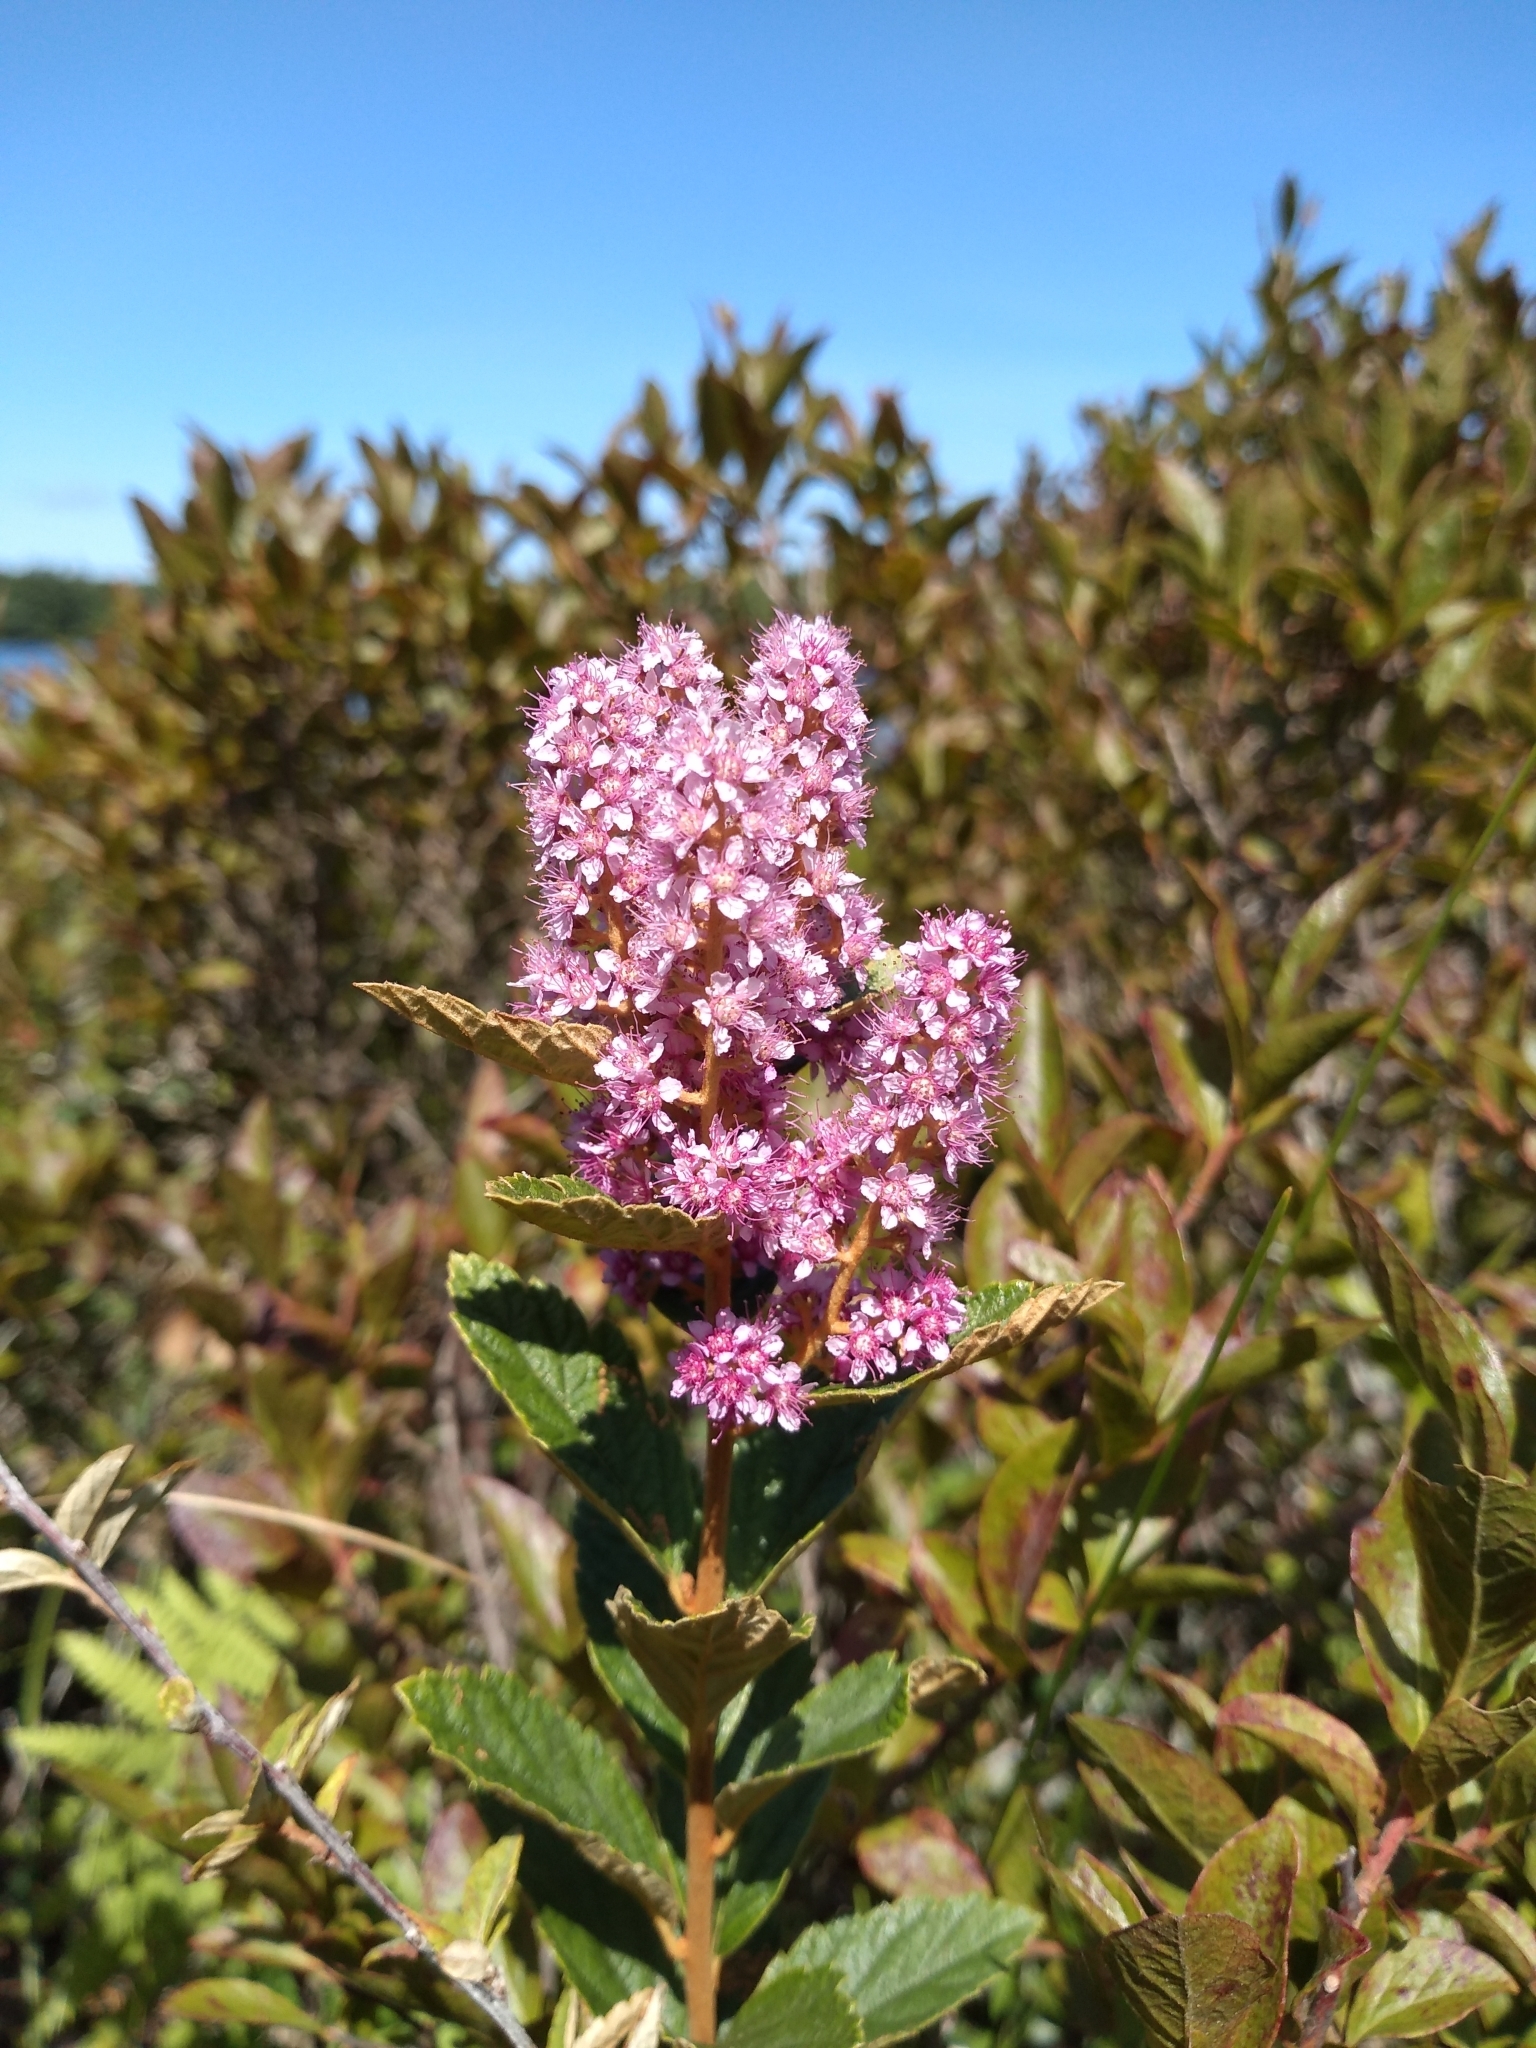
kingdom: Plantae
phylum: Tracheophyta
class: Magnoliopsida
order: Rosales
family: Rosaceae
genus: Spiraea
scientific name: Spiraea tomentosa
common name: Hardhack
